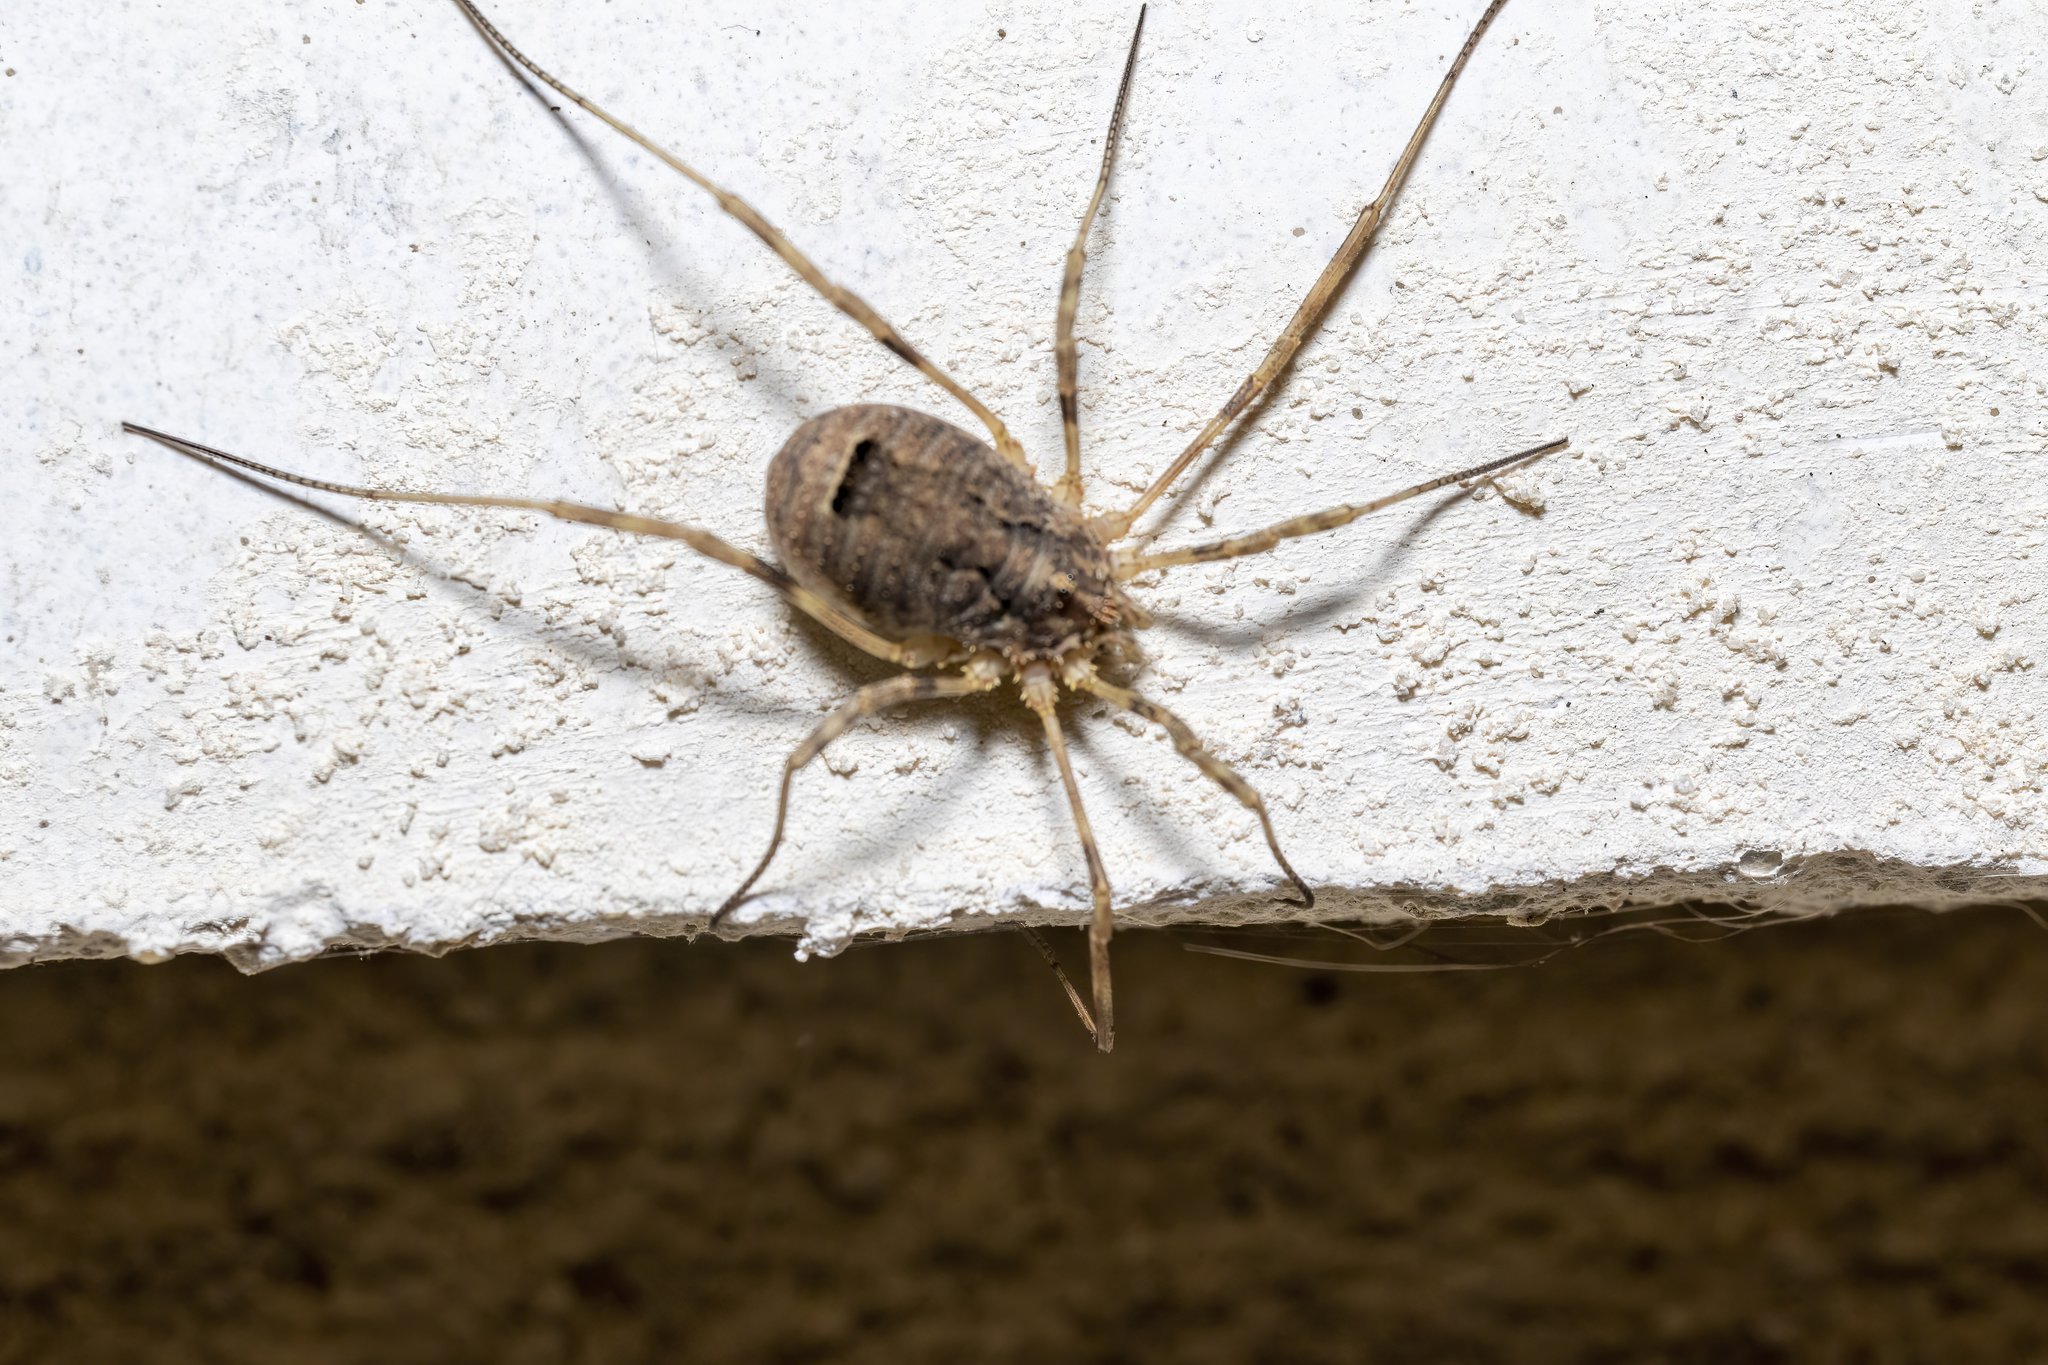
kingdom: Animalia
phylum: Arthropoda
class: Arachnida
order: Opiliones
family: Phalangiidae
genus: Odiellus
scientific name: Odiellus spinosus
